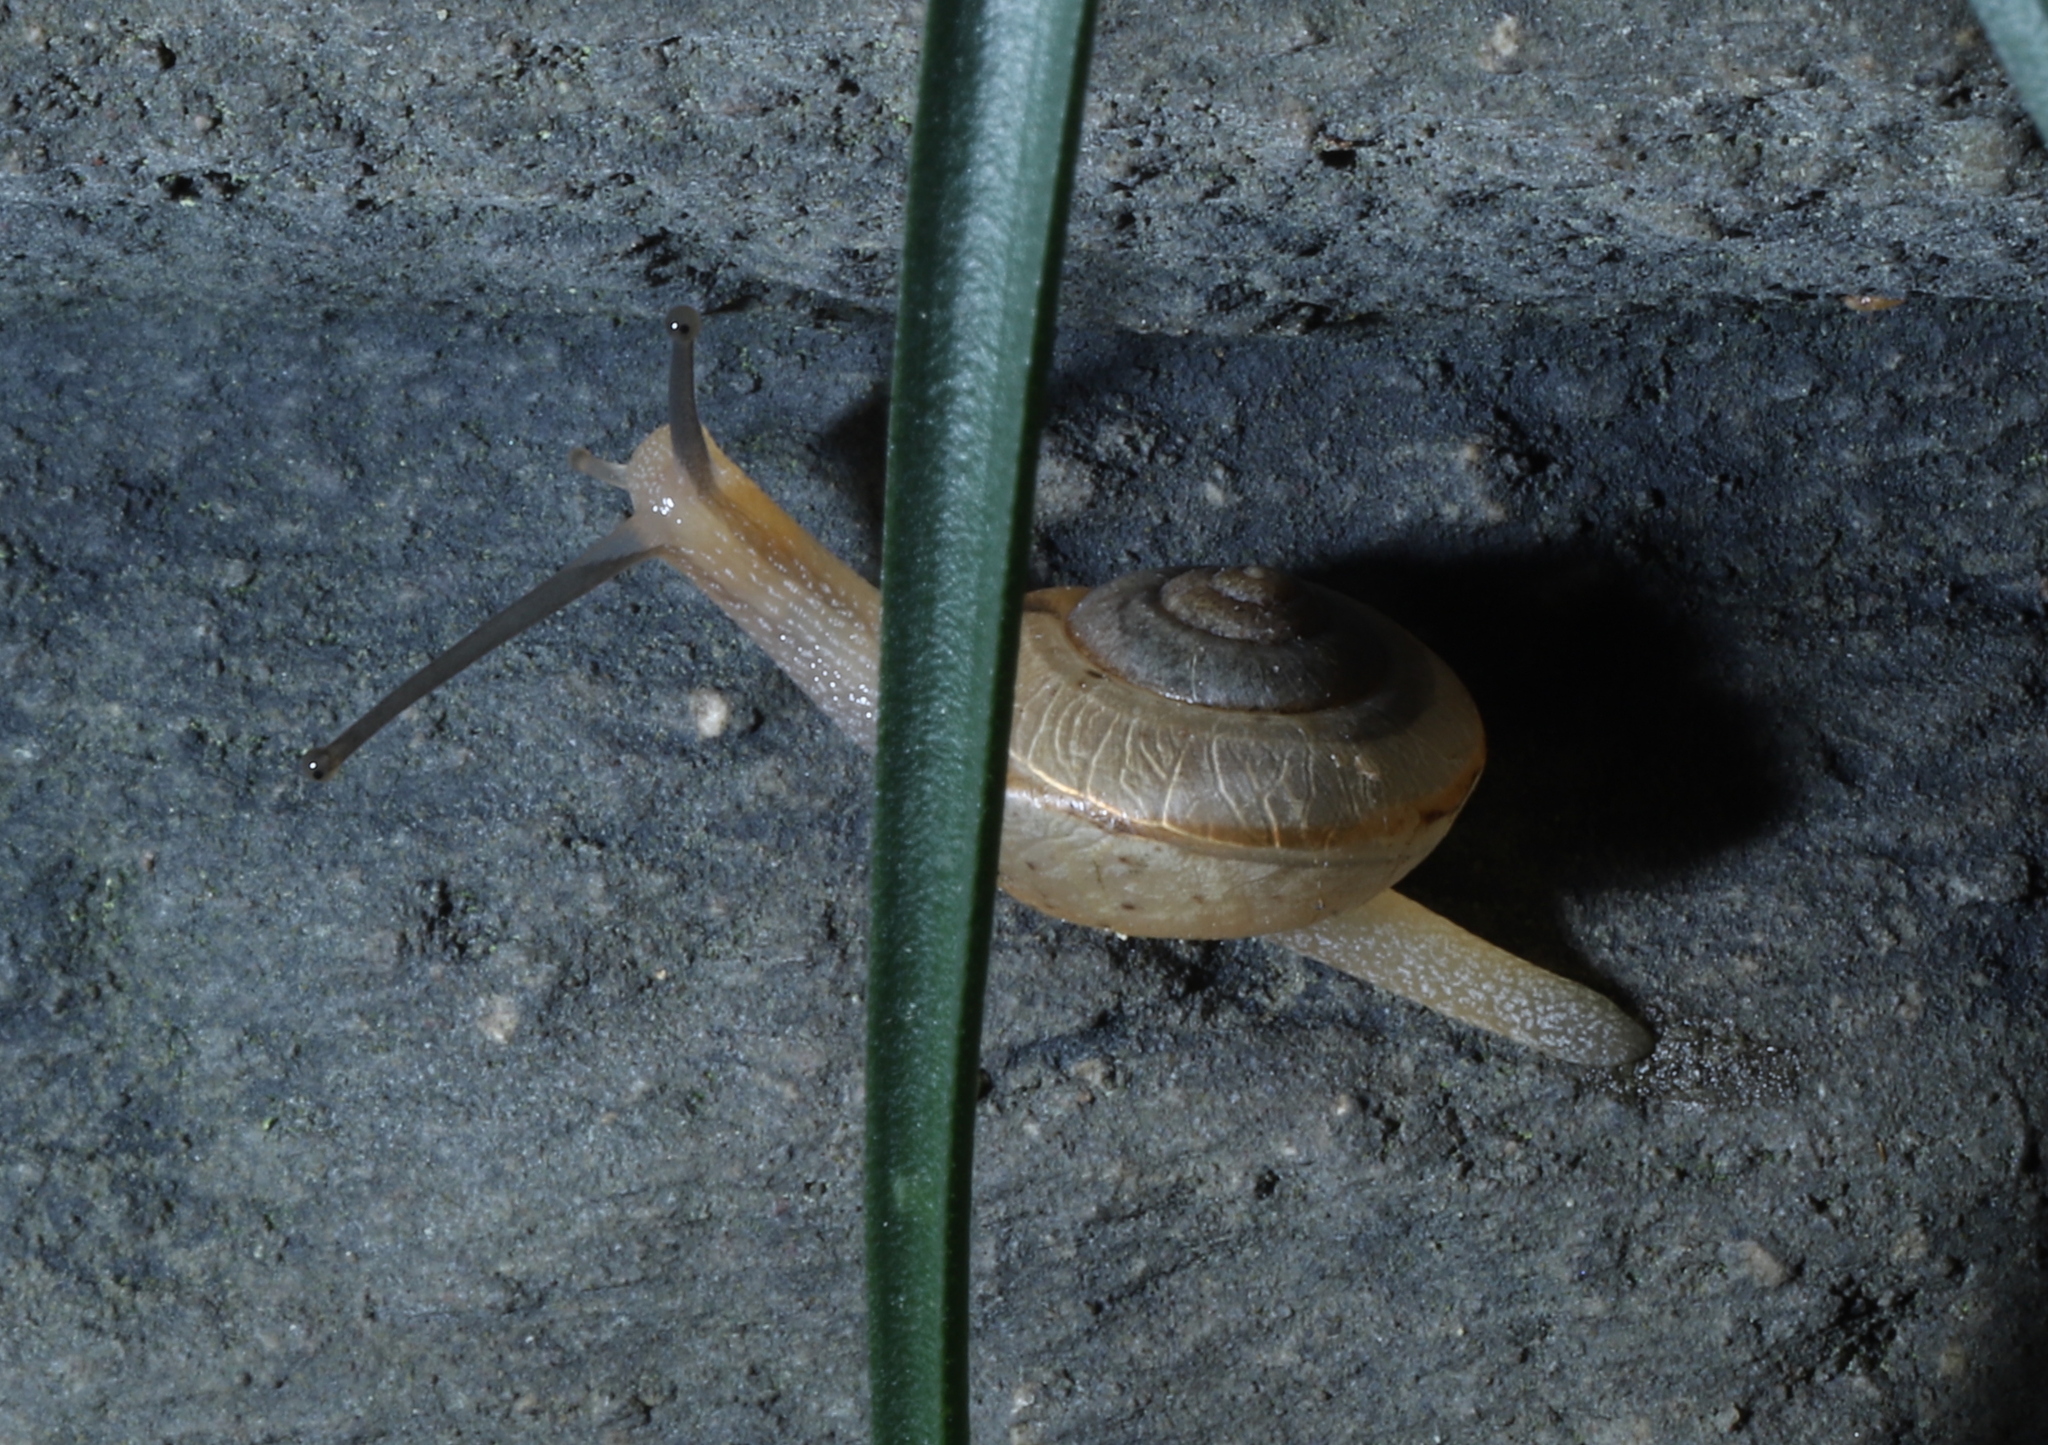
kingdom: Animalia
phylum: Mollusca
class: Gastropoda
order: Stylommatophora
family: Camaenidae
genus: Bradybaena
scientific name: Bradybaena similaris
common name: Asian trampsnail
